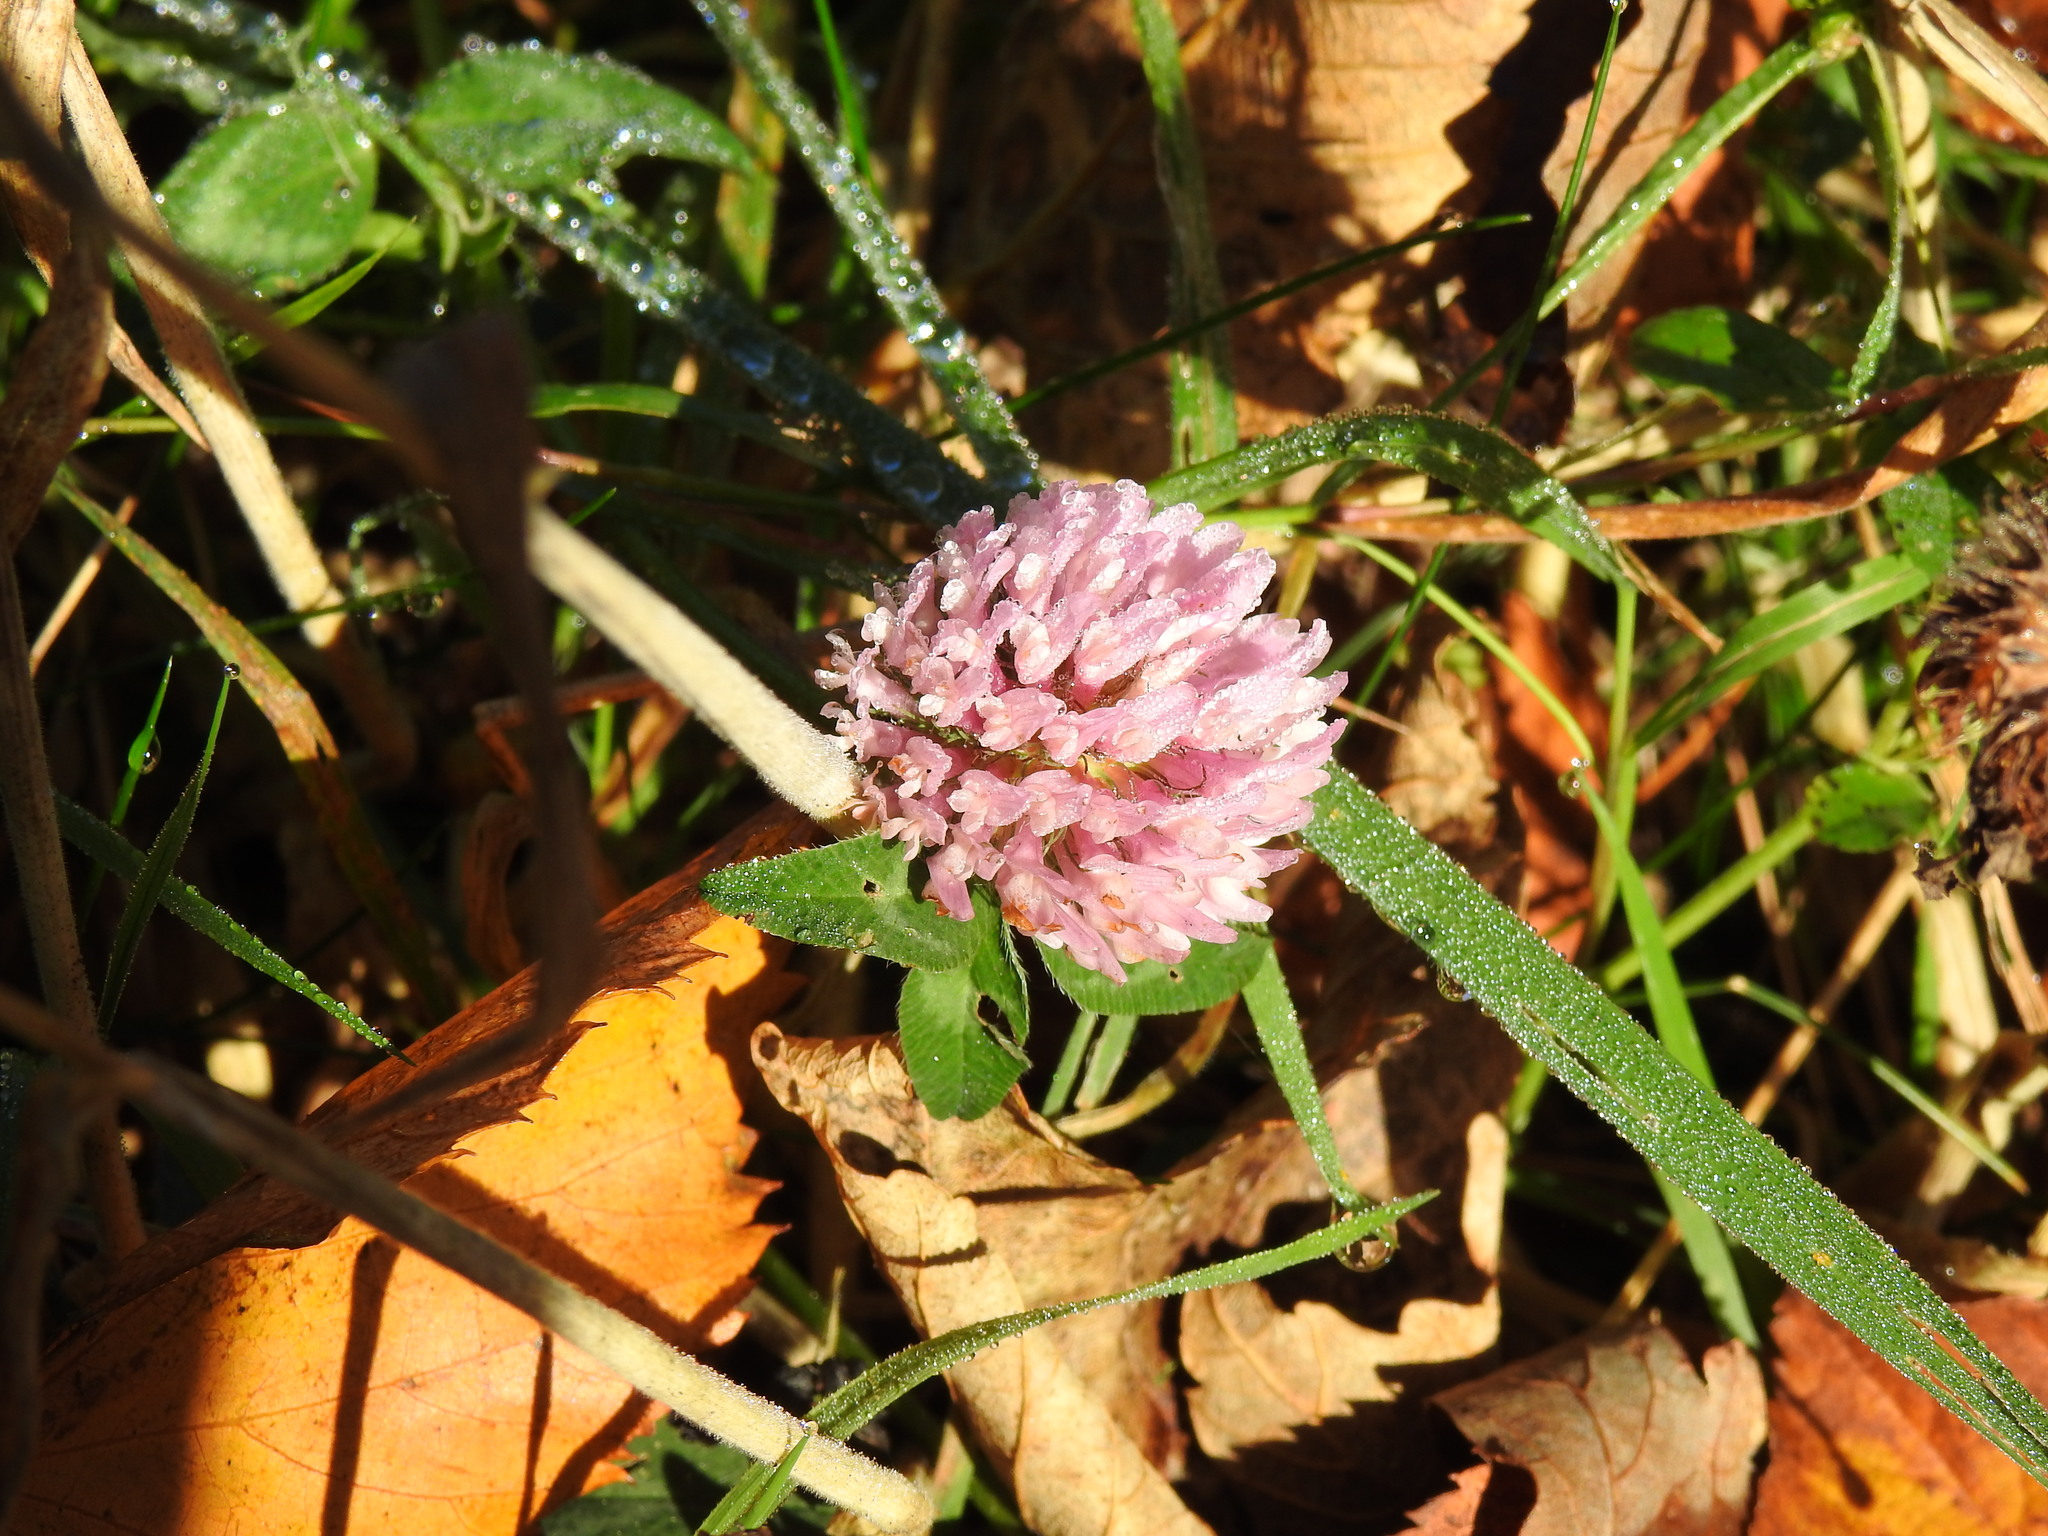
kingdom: Plantae
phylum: Tracheophyta
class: Magnoliopsida
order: Fabales
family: Fabaceae
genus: Trifolium
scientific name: Trifolium pratense
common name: Red clover
